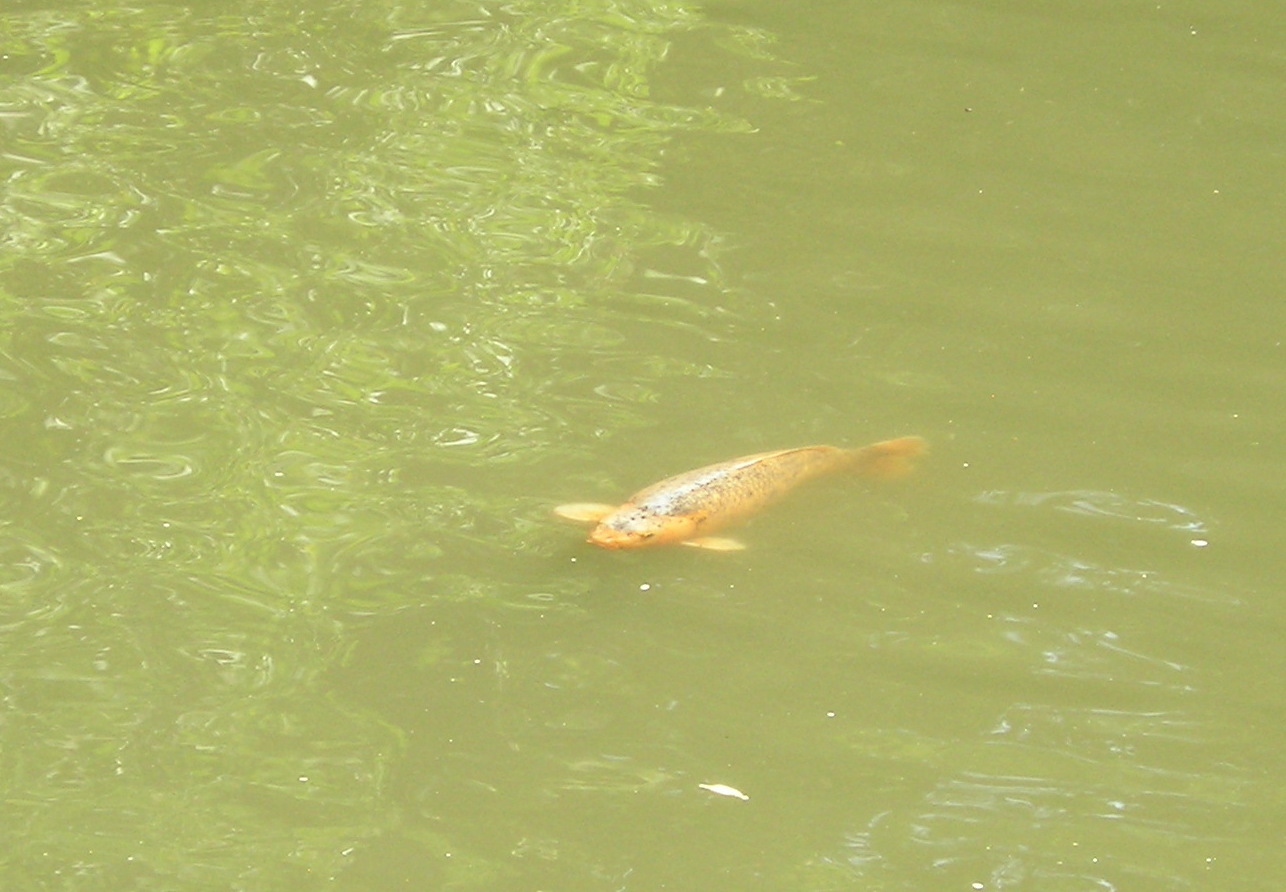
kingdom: Animalia
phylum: Chordata
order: Cypriniformes
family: Cyprinidae
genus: Cyprinus
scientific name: Cyprinus rubrofuscus
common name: Koi
